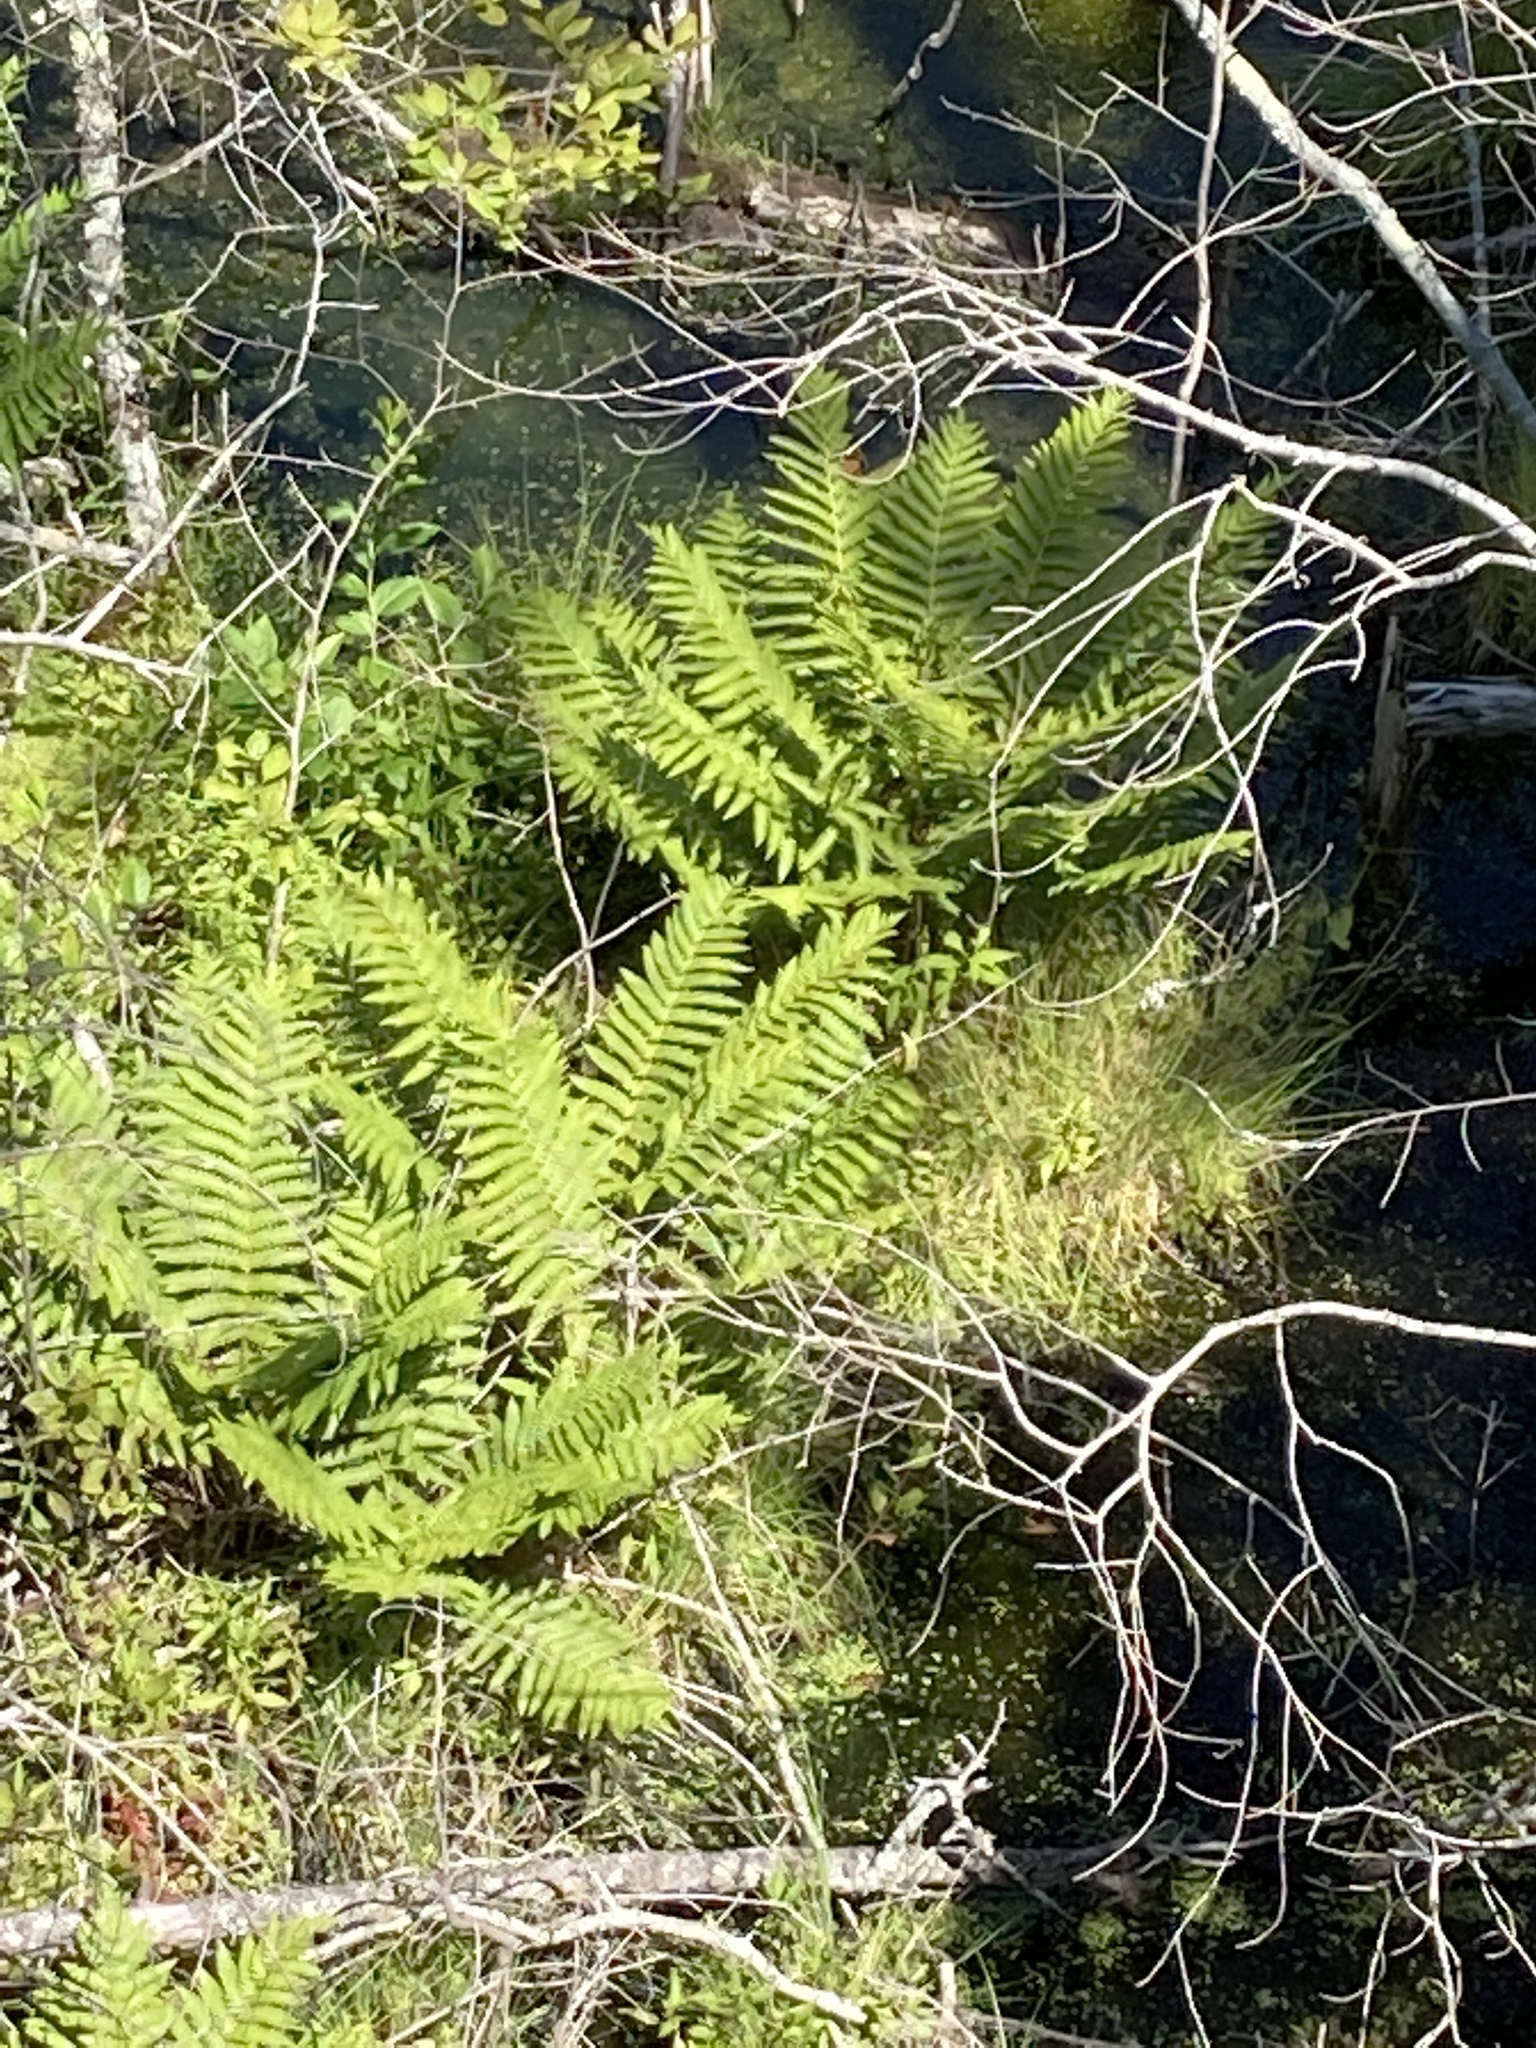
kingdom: Plantae
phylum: Tracheophyta
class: Polypodiopsida
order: Osmundales
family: Osmundaceae
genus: Osmundastrum
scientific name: Osmundastrum cinnamomeum
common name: Cinnamon fern
